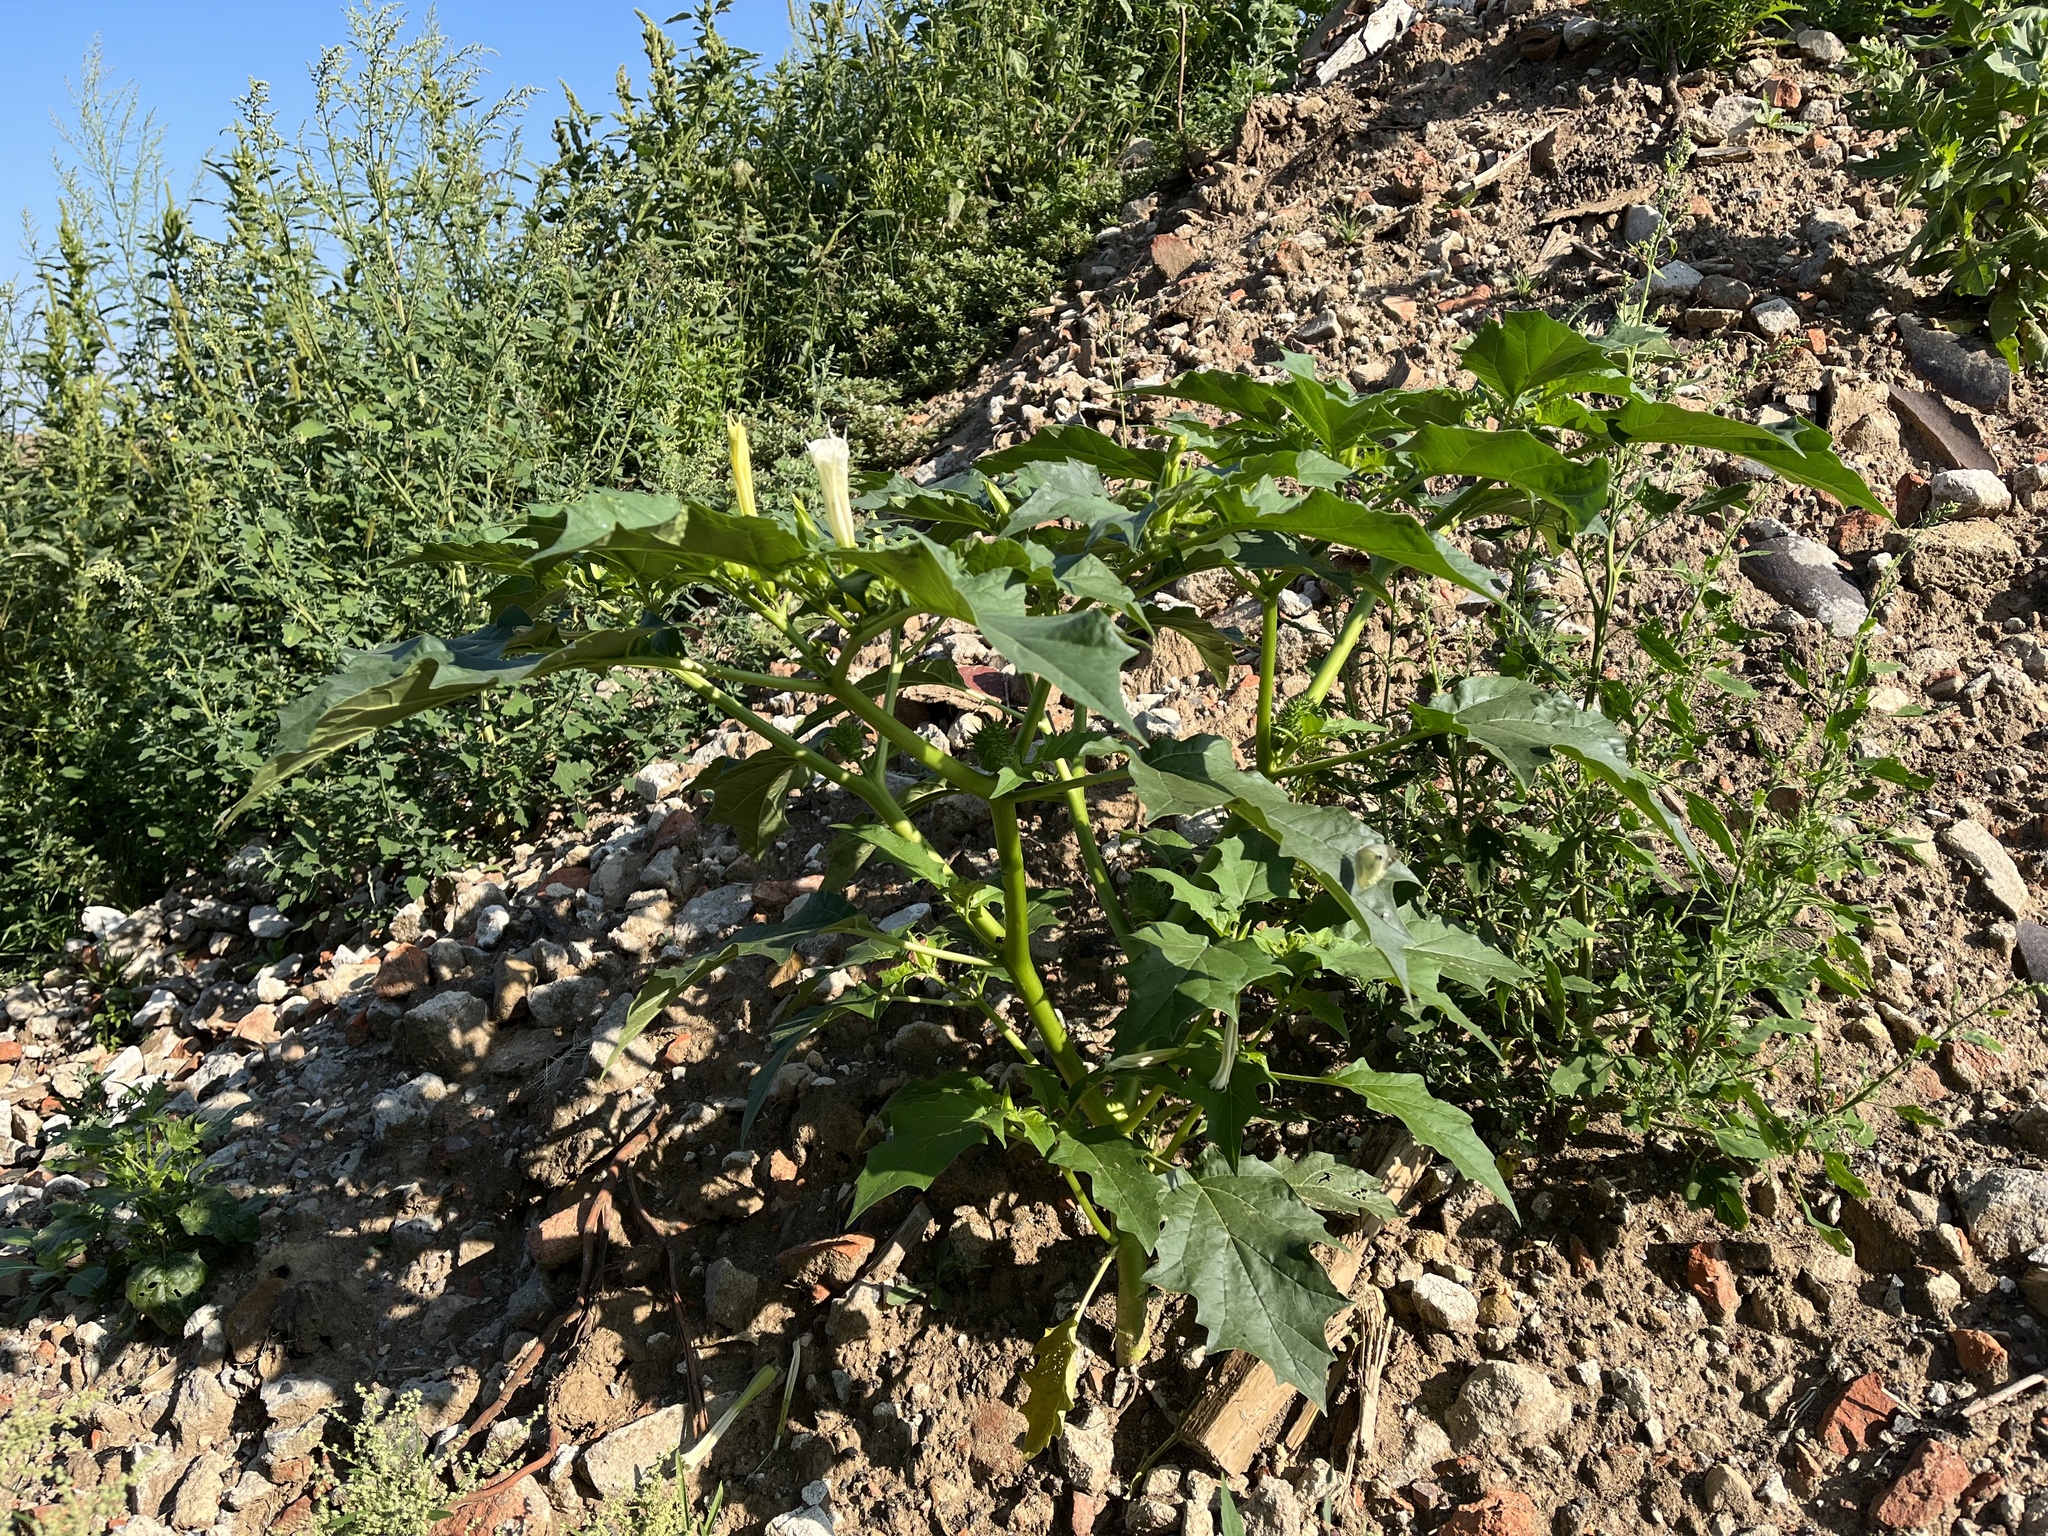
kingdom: Plantae
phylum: Tracheophyta
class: Magnoliopsida
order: Solanales
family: Solanaceae
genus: Datura
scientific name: Datura stramonium
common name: Thorn-apple
